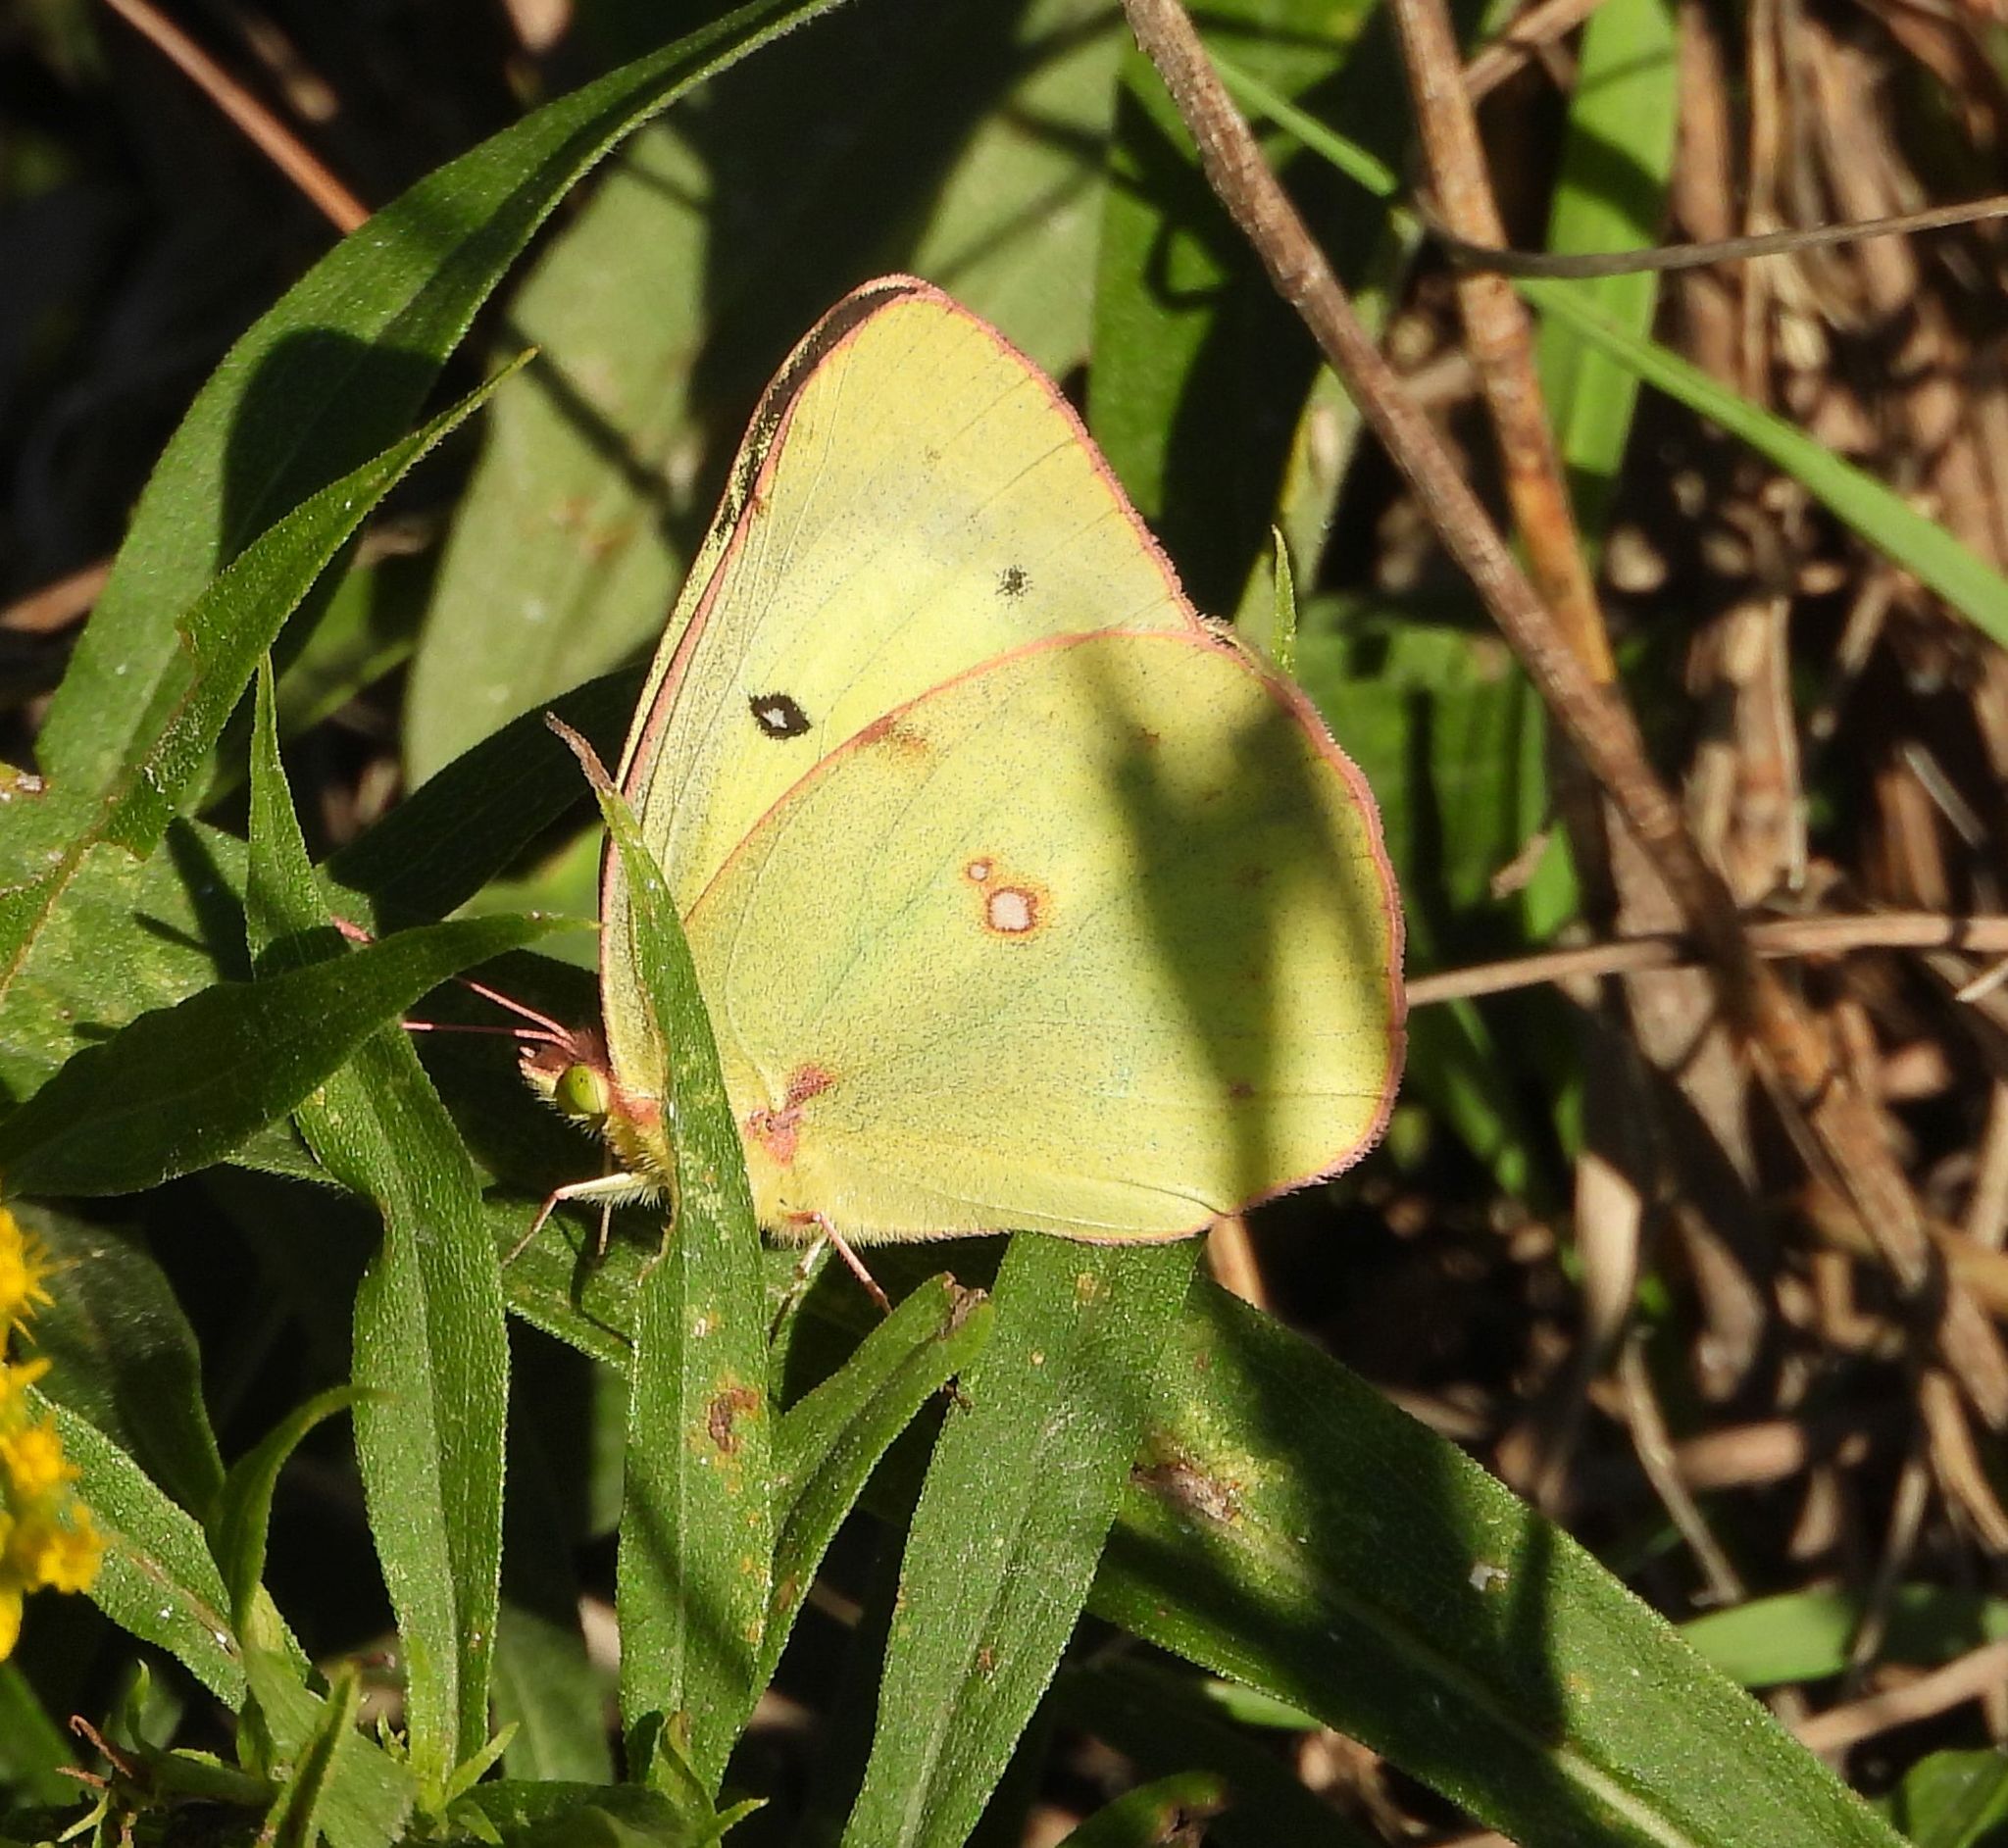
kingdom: Animalia
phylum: Arthropoda
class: Insecta
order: Lepidoptera
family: Pieridae
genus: Colias
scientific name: Colias philodice
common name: Clouded sulphur
